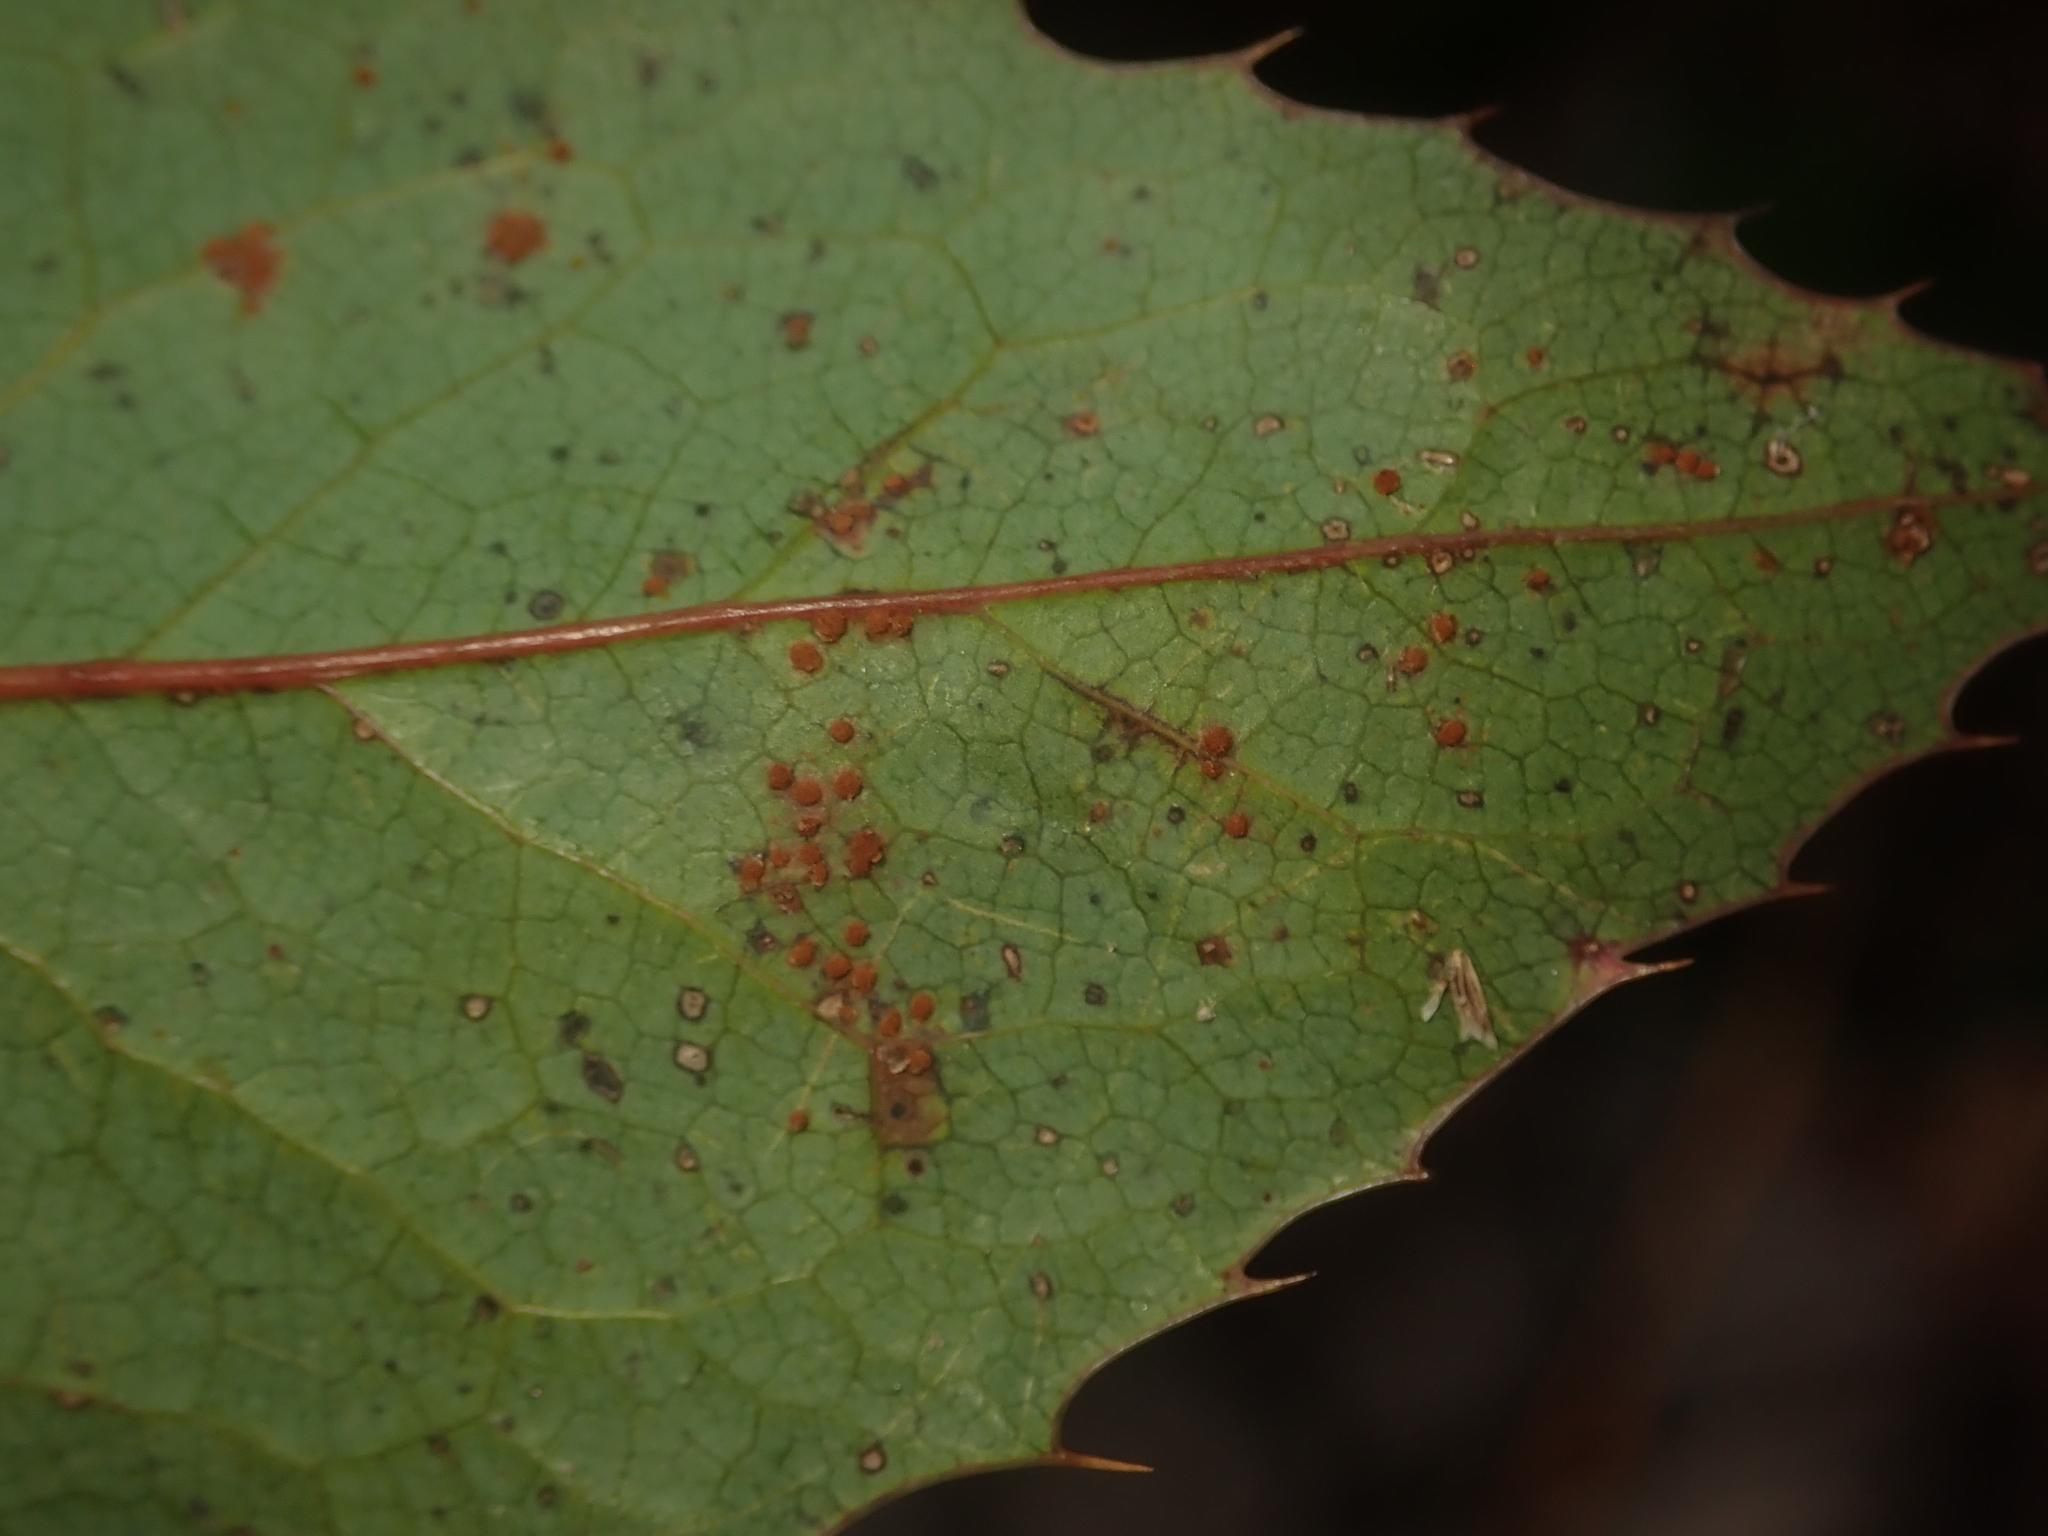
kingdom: Fungi
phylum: Basidiomycota
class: Pucciniomycetes
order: Pucciniales
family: Pucciniaceae
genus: Cumminsiella
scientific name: Cumminsiella mirabilissima
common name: Mahonia rust
